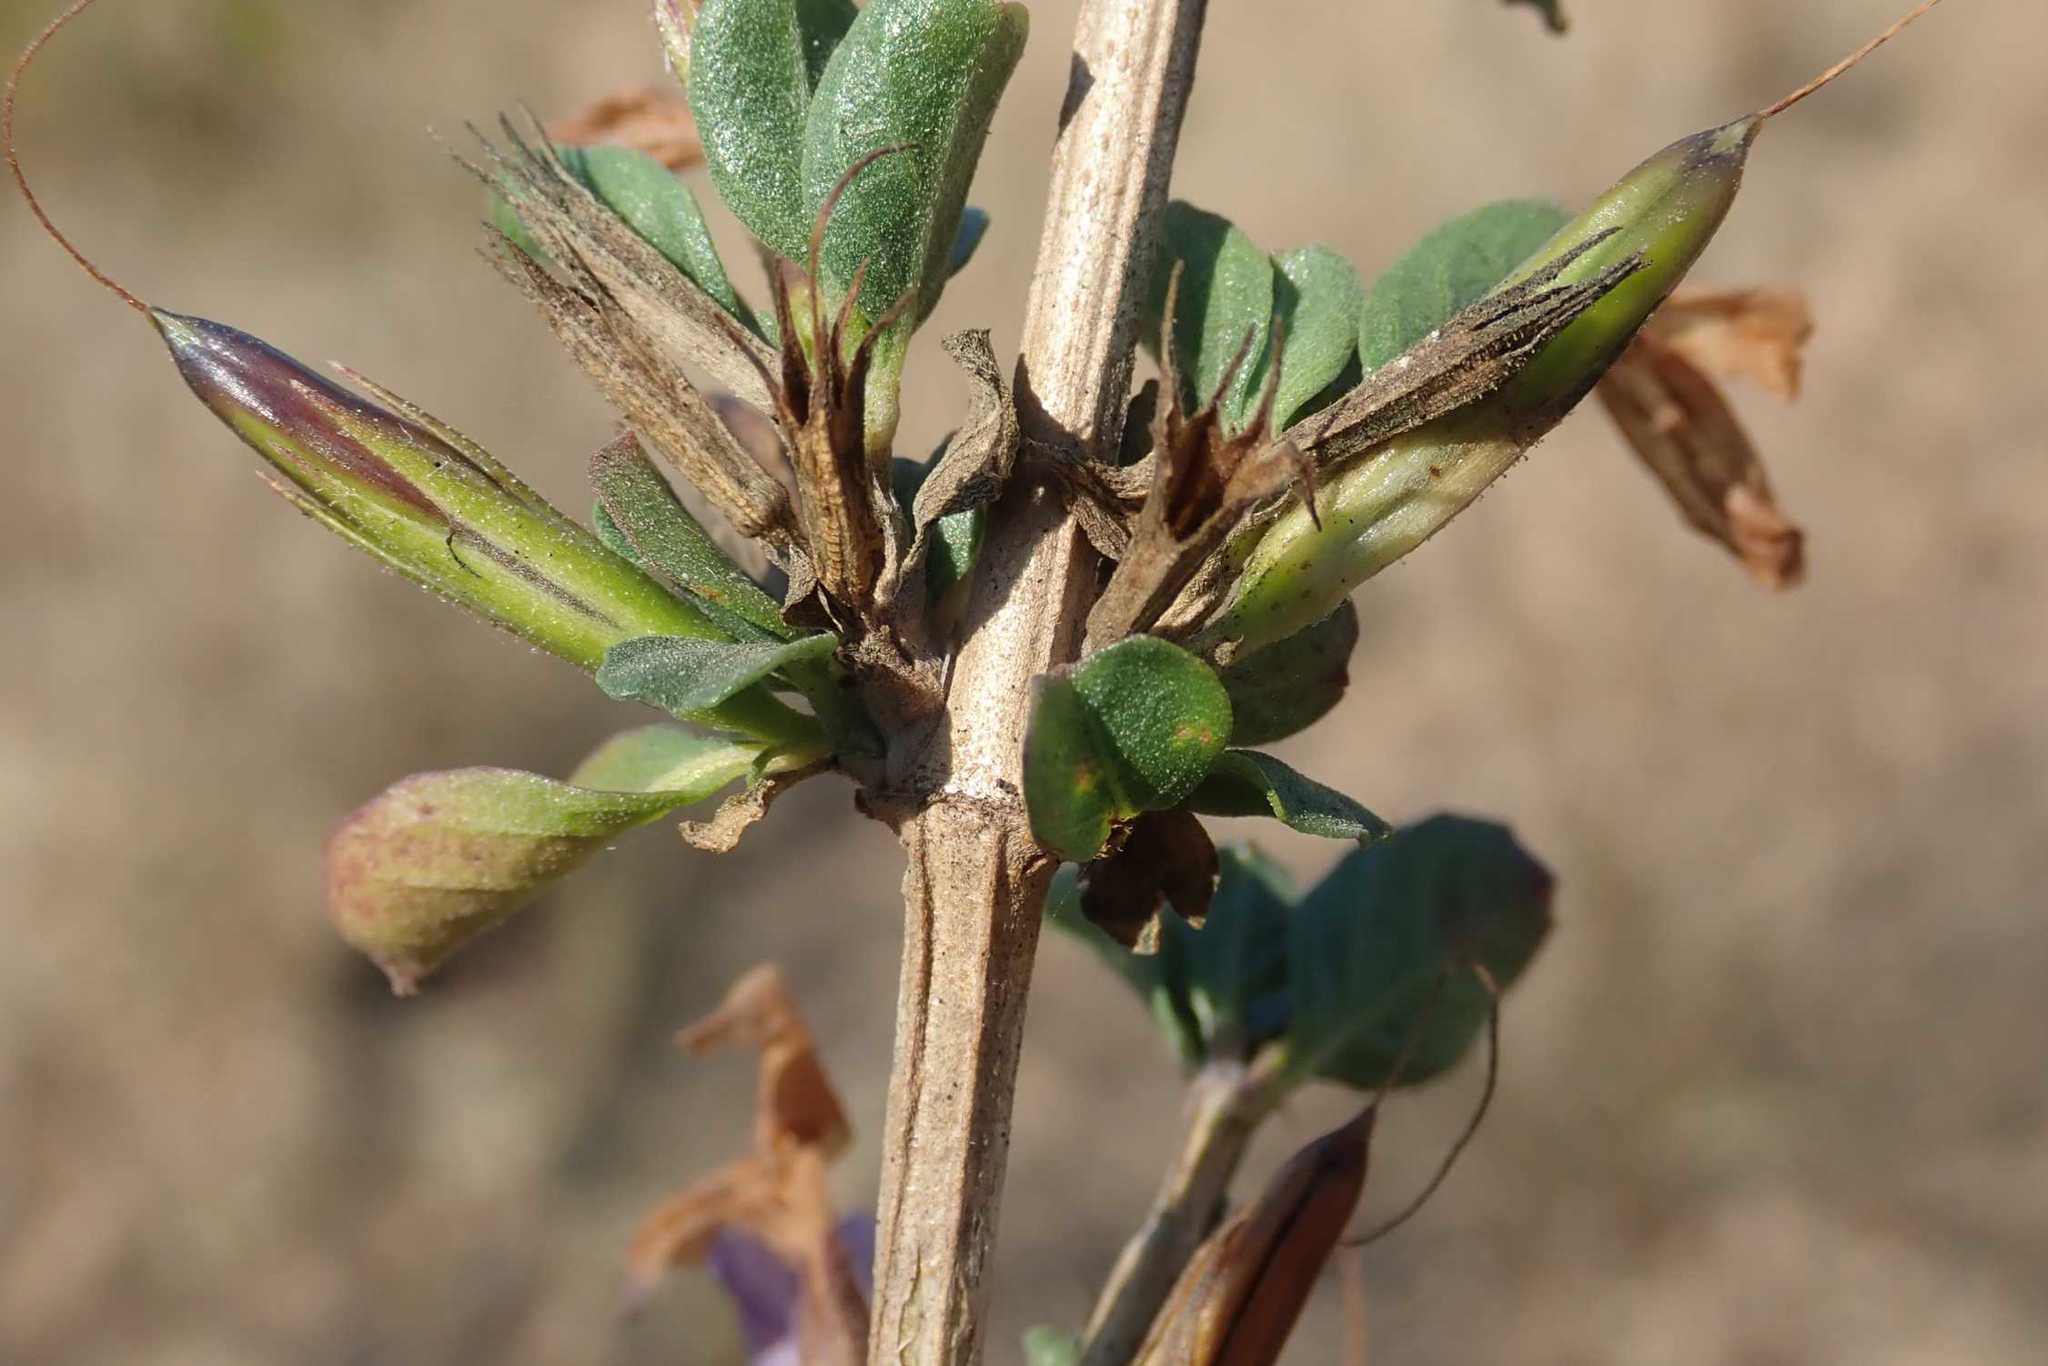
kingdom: Plantae
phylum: Tracheophyta
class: Magnoliopsida
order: Lamiales
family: Acanthaceae
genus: Dyschoriste
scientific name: Dyschoriste hildebrandtii
